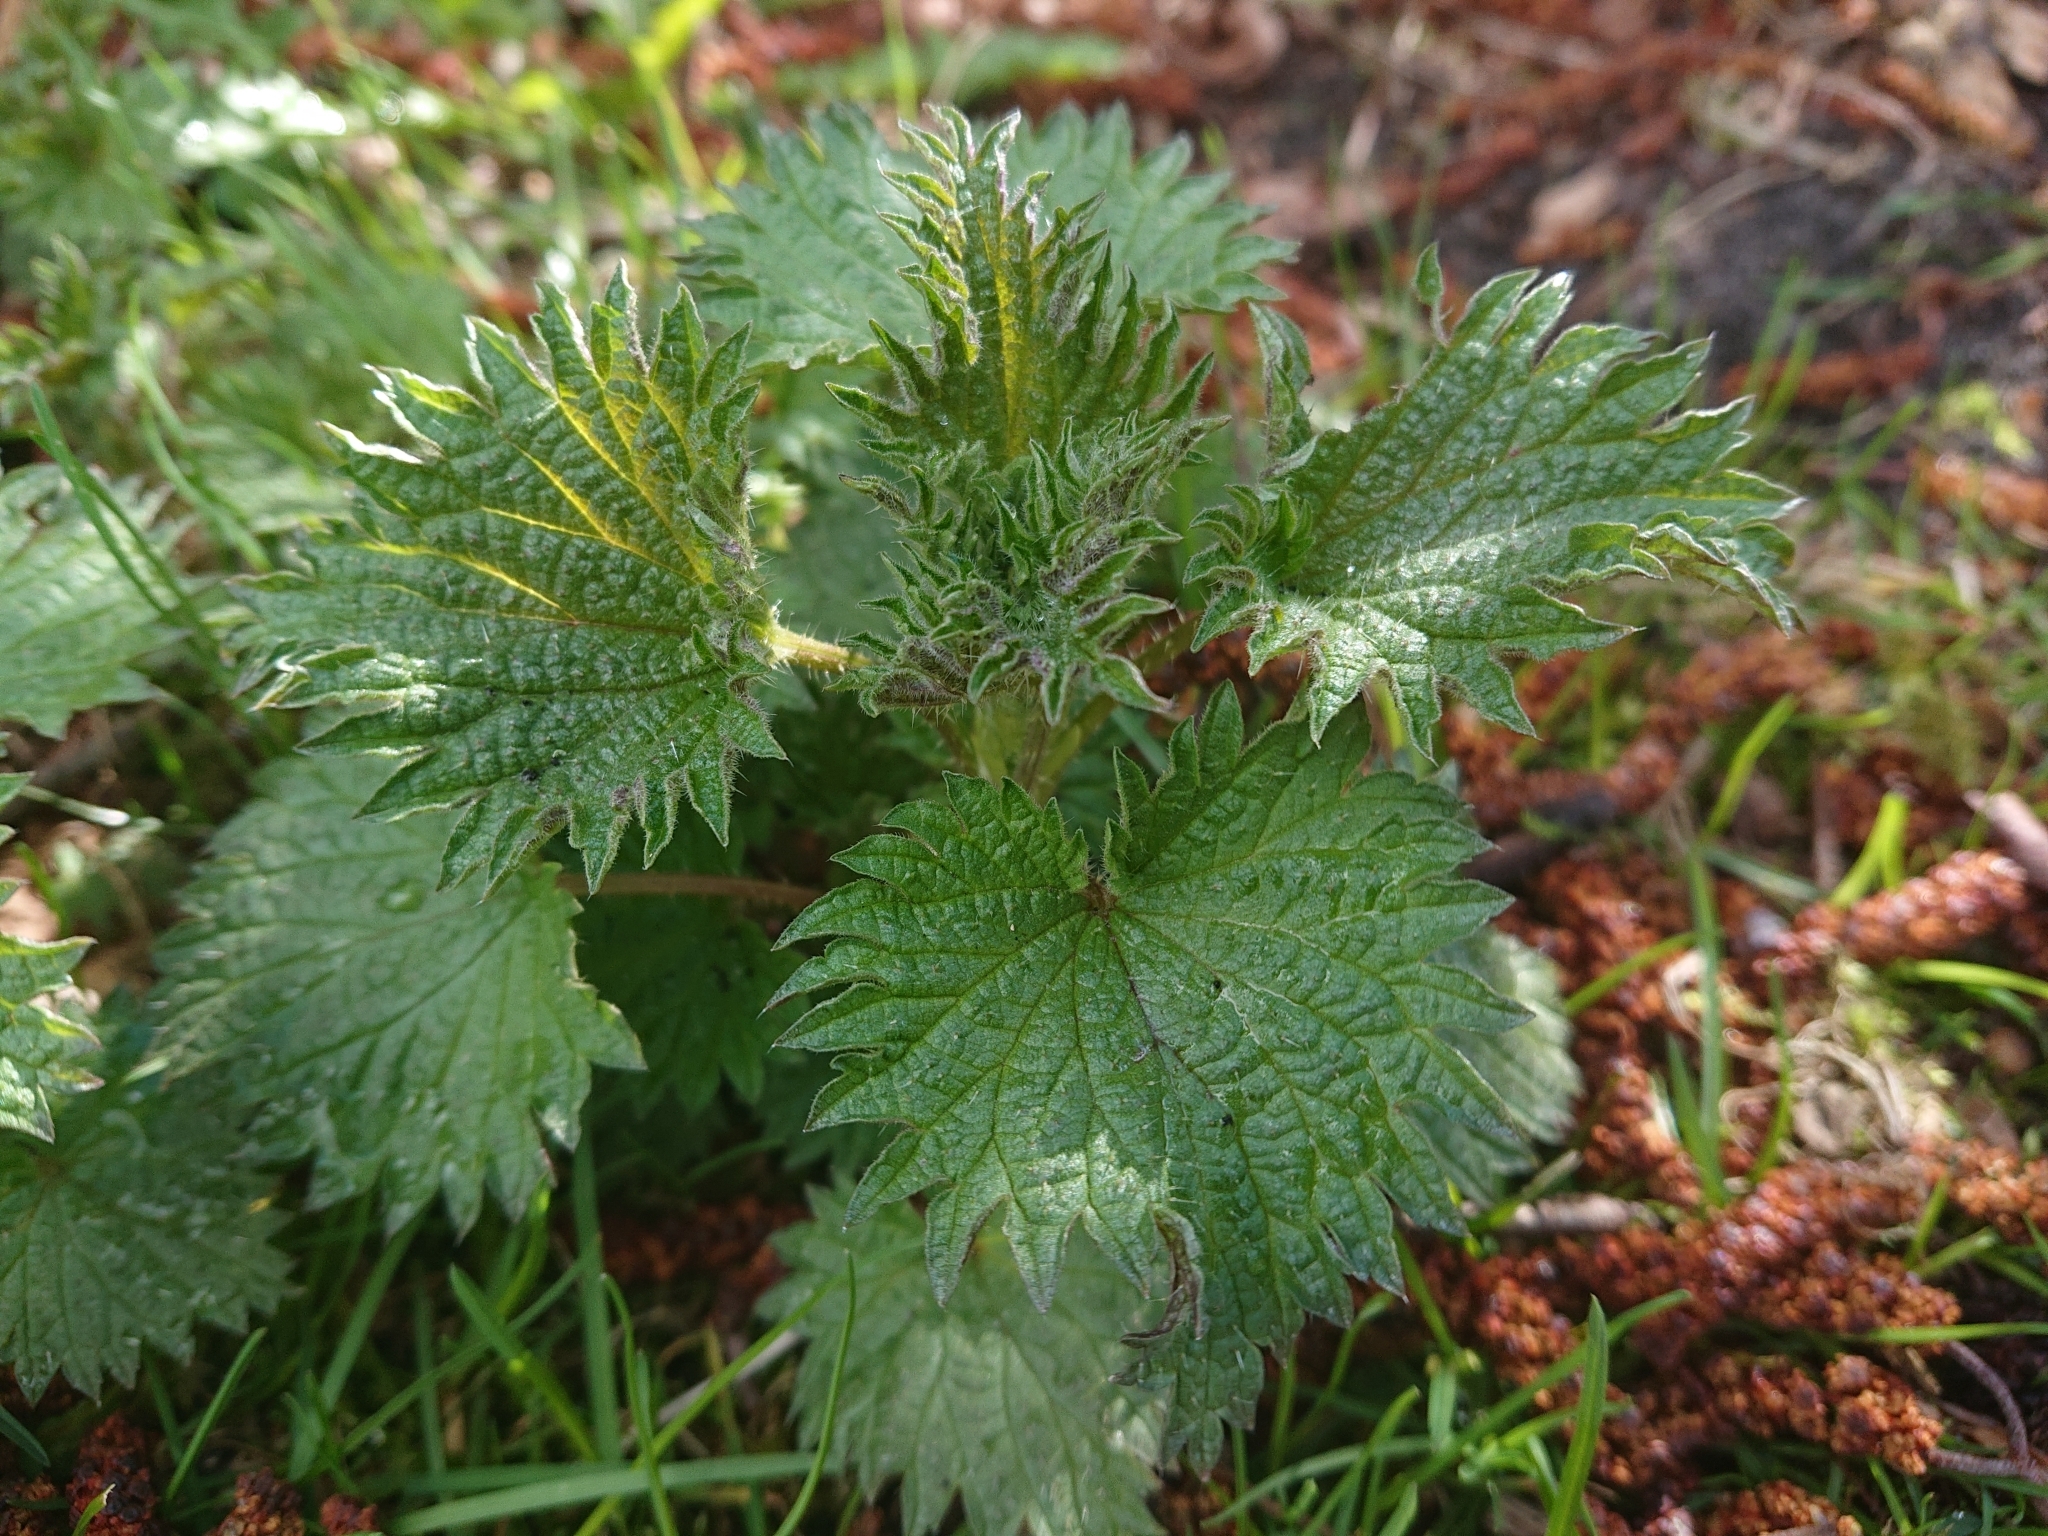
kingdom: Plantae
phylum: Tracheophyta
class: Magnoliopsida
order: Rosales
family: Urticaceae
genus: Urtica
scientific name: Urtica dioica
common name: Common nettle
